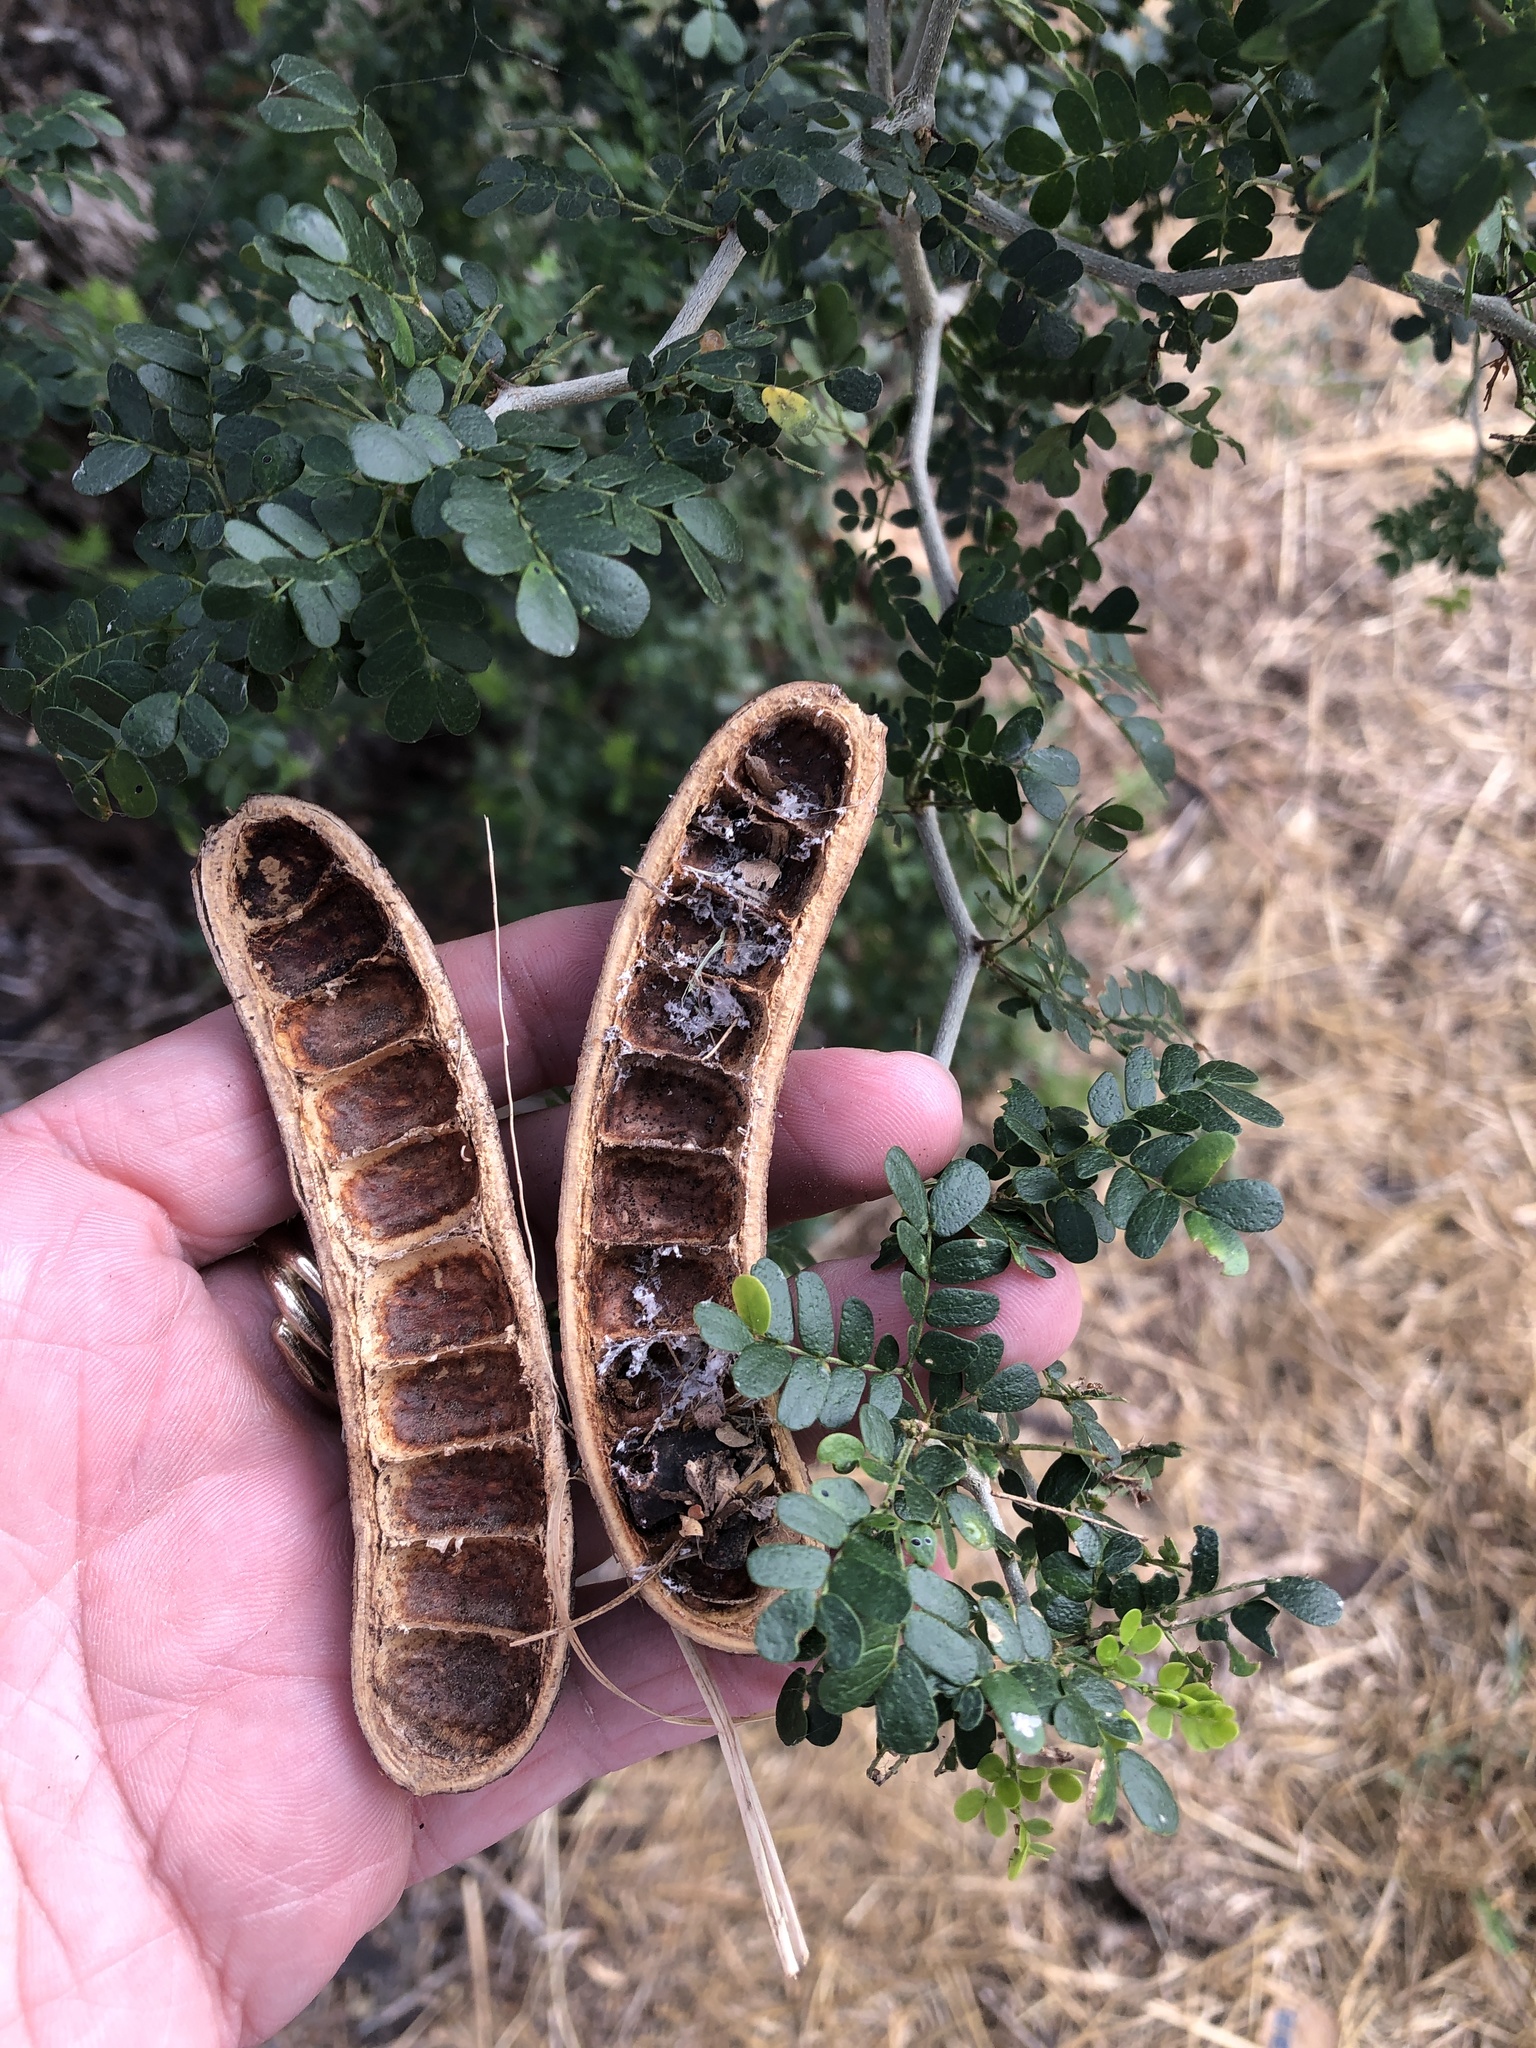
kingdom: Plantae
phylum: Tracheophyta
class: Magnoliopsida
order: Fabales
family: Fabaceae
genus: Ebenopsis
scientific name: Ebenopsis ebano
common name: Ebony blackbead
